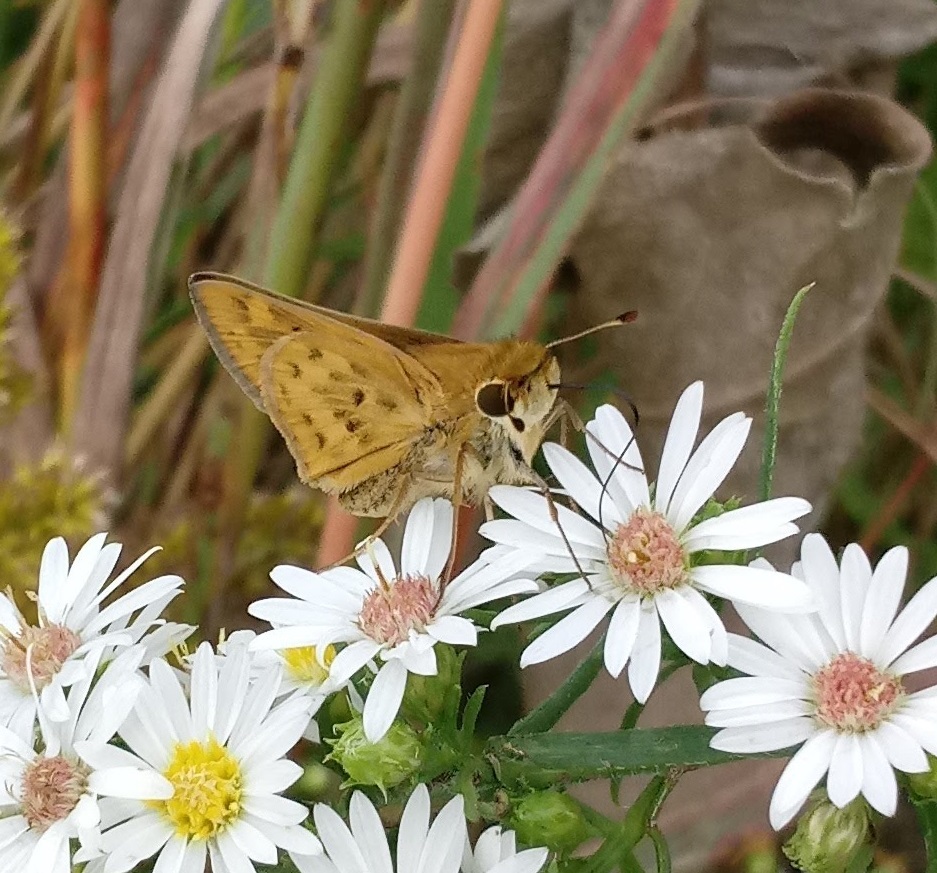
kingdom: Animalia
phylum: Arthropoda
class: Insecta
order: Lepidoptera
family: Hesperiidae
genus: Hylephila
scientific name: Hylephila phyleus
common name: Fiery skipper
